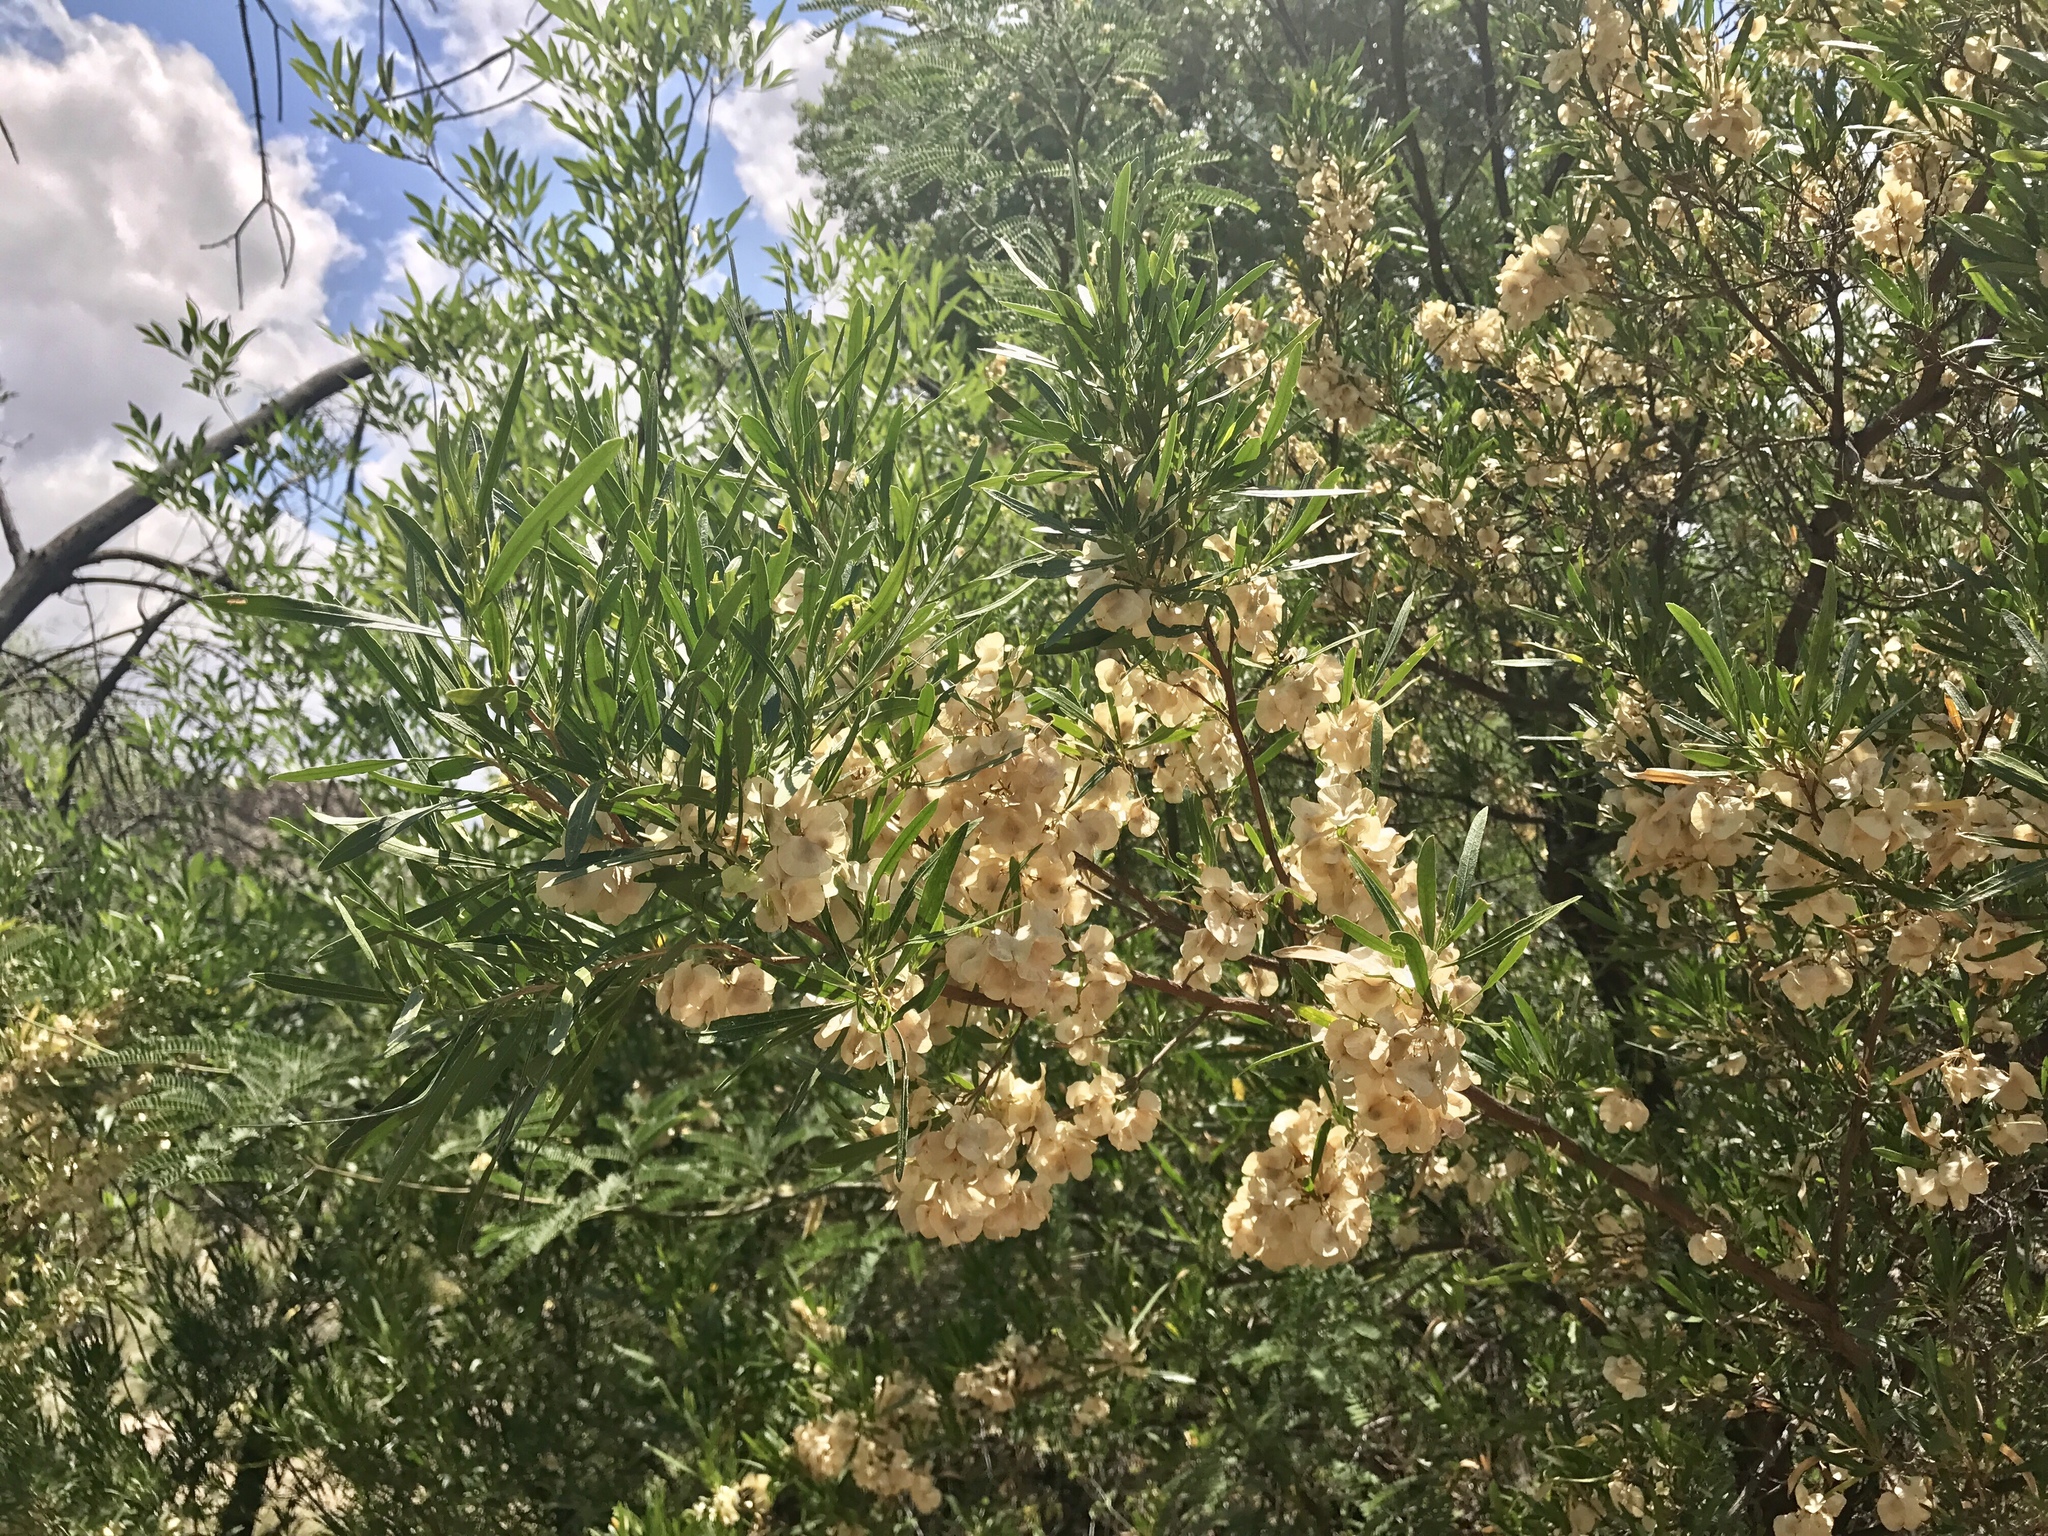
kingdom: Plantae
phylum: Tracheophyta
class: Magnoliopsida
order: Sapindales
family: Sapindaceae
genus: Dodonaea
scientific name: Dodonaea viscosa
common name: Hopbush
